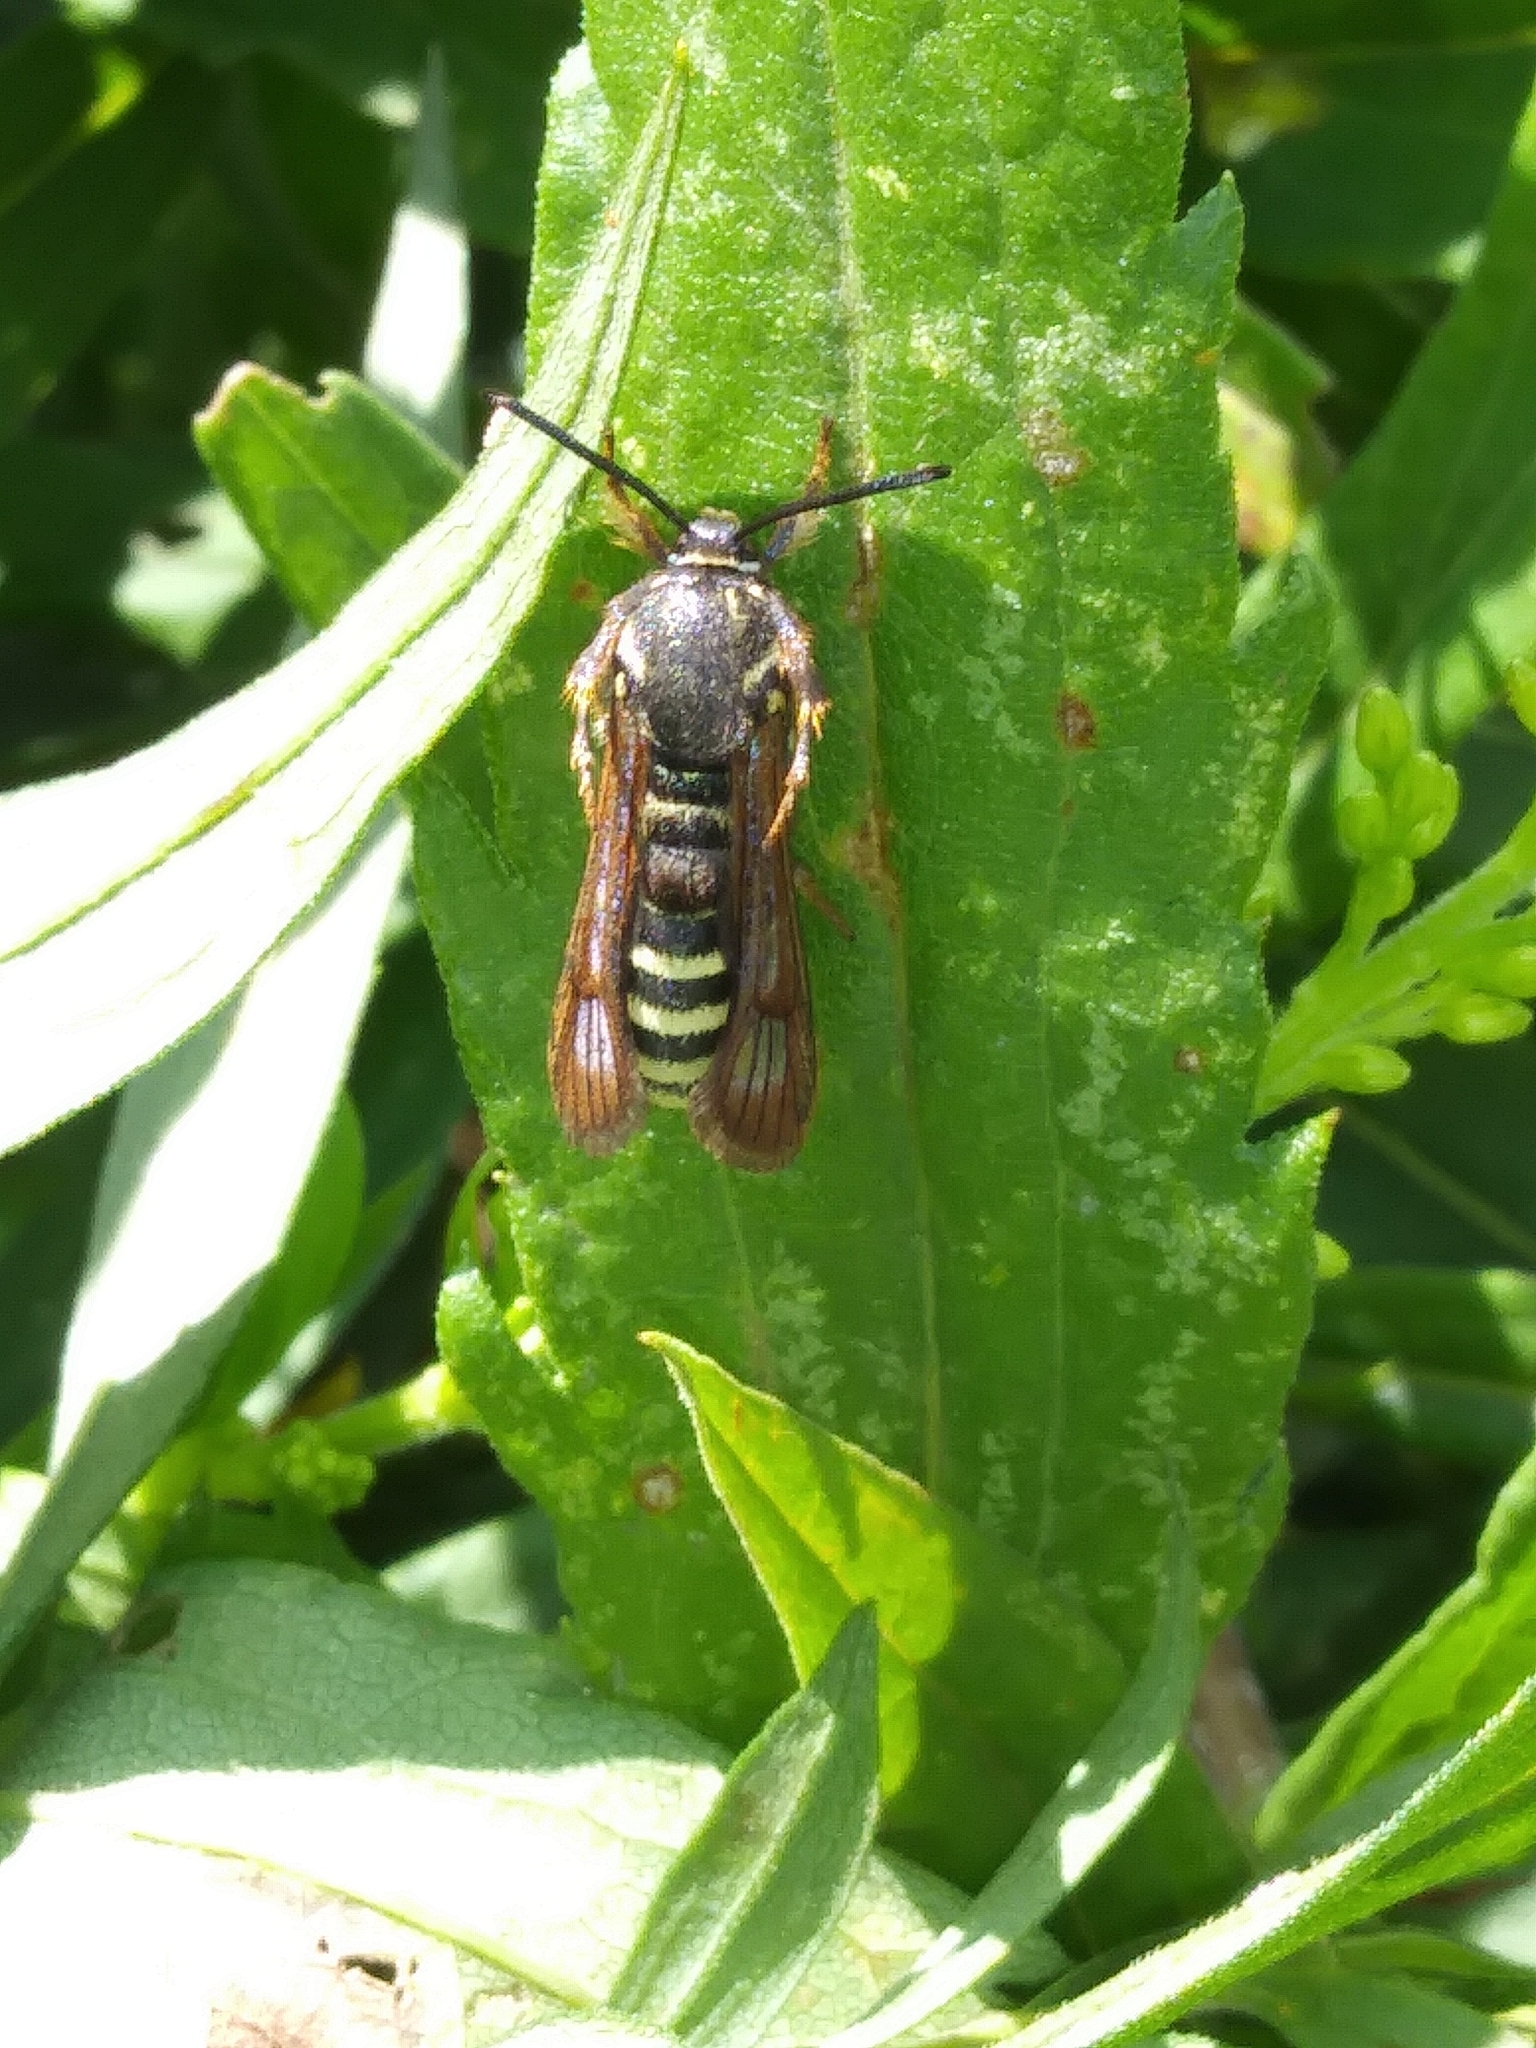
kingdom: Animalia
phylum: Arthropoda
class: Insecta
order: Lepidoptera
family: Sesiidae
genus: Pennisetia
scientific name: Pennisetia marginatum
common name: Raspberry crown borer
